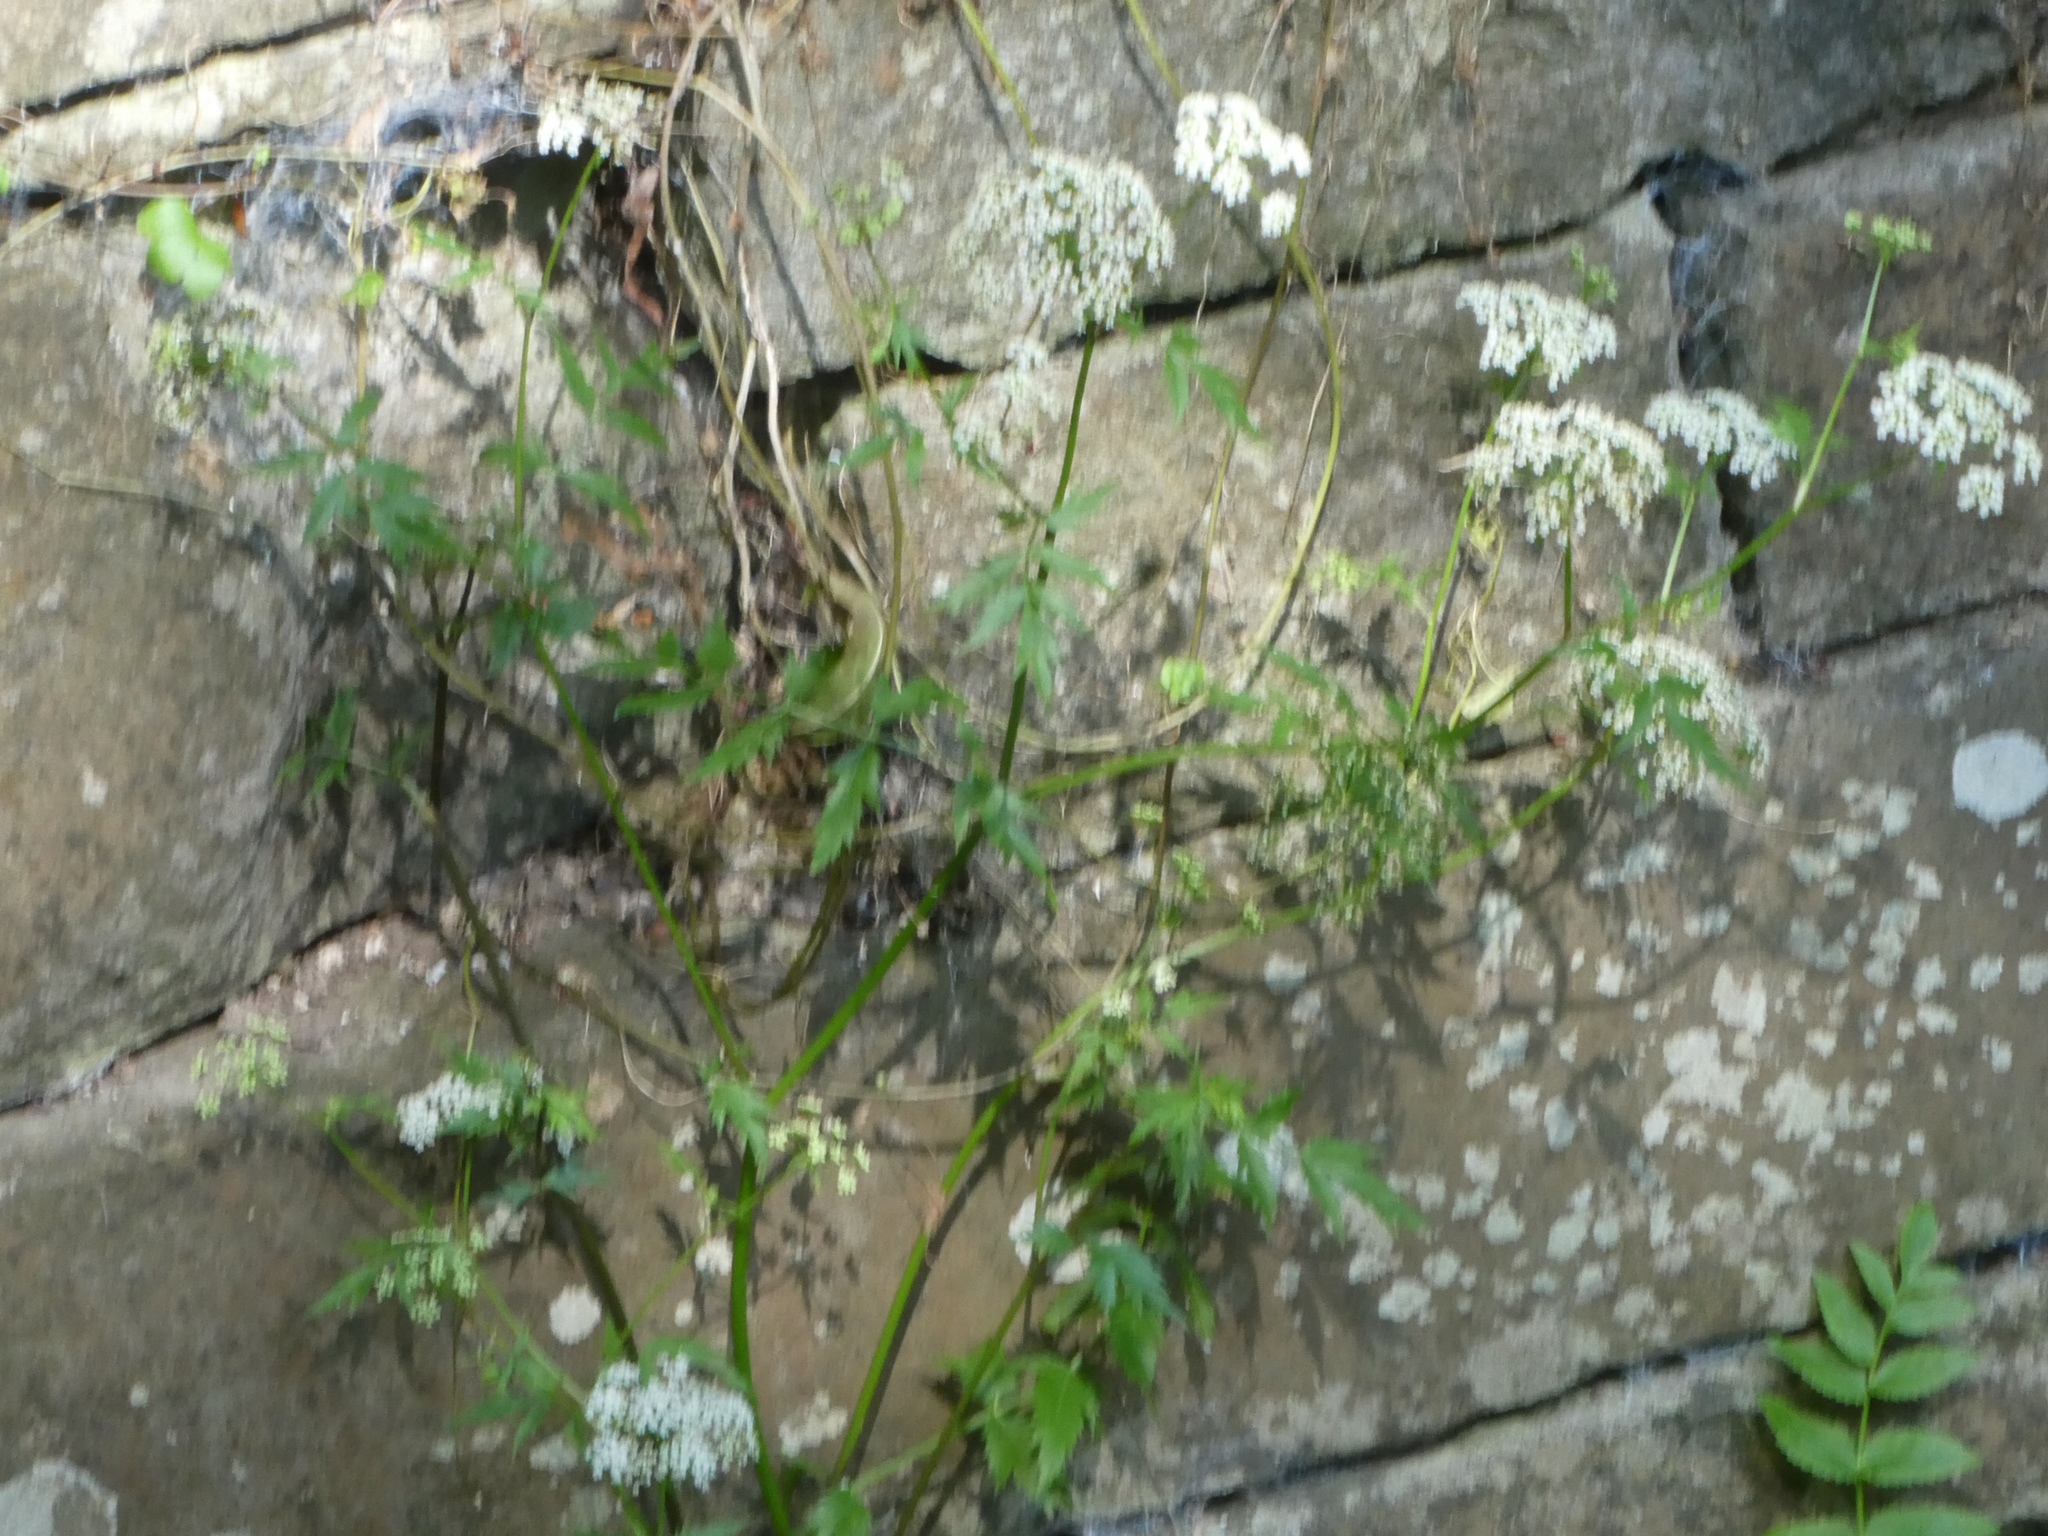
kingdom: Plantae
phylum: Tracheophyta
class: Magnoliopsida
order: Apiales
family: Apiaceae
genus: Berula
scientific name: Berula erecta
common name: Lesser water-parsnip
